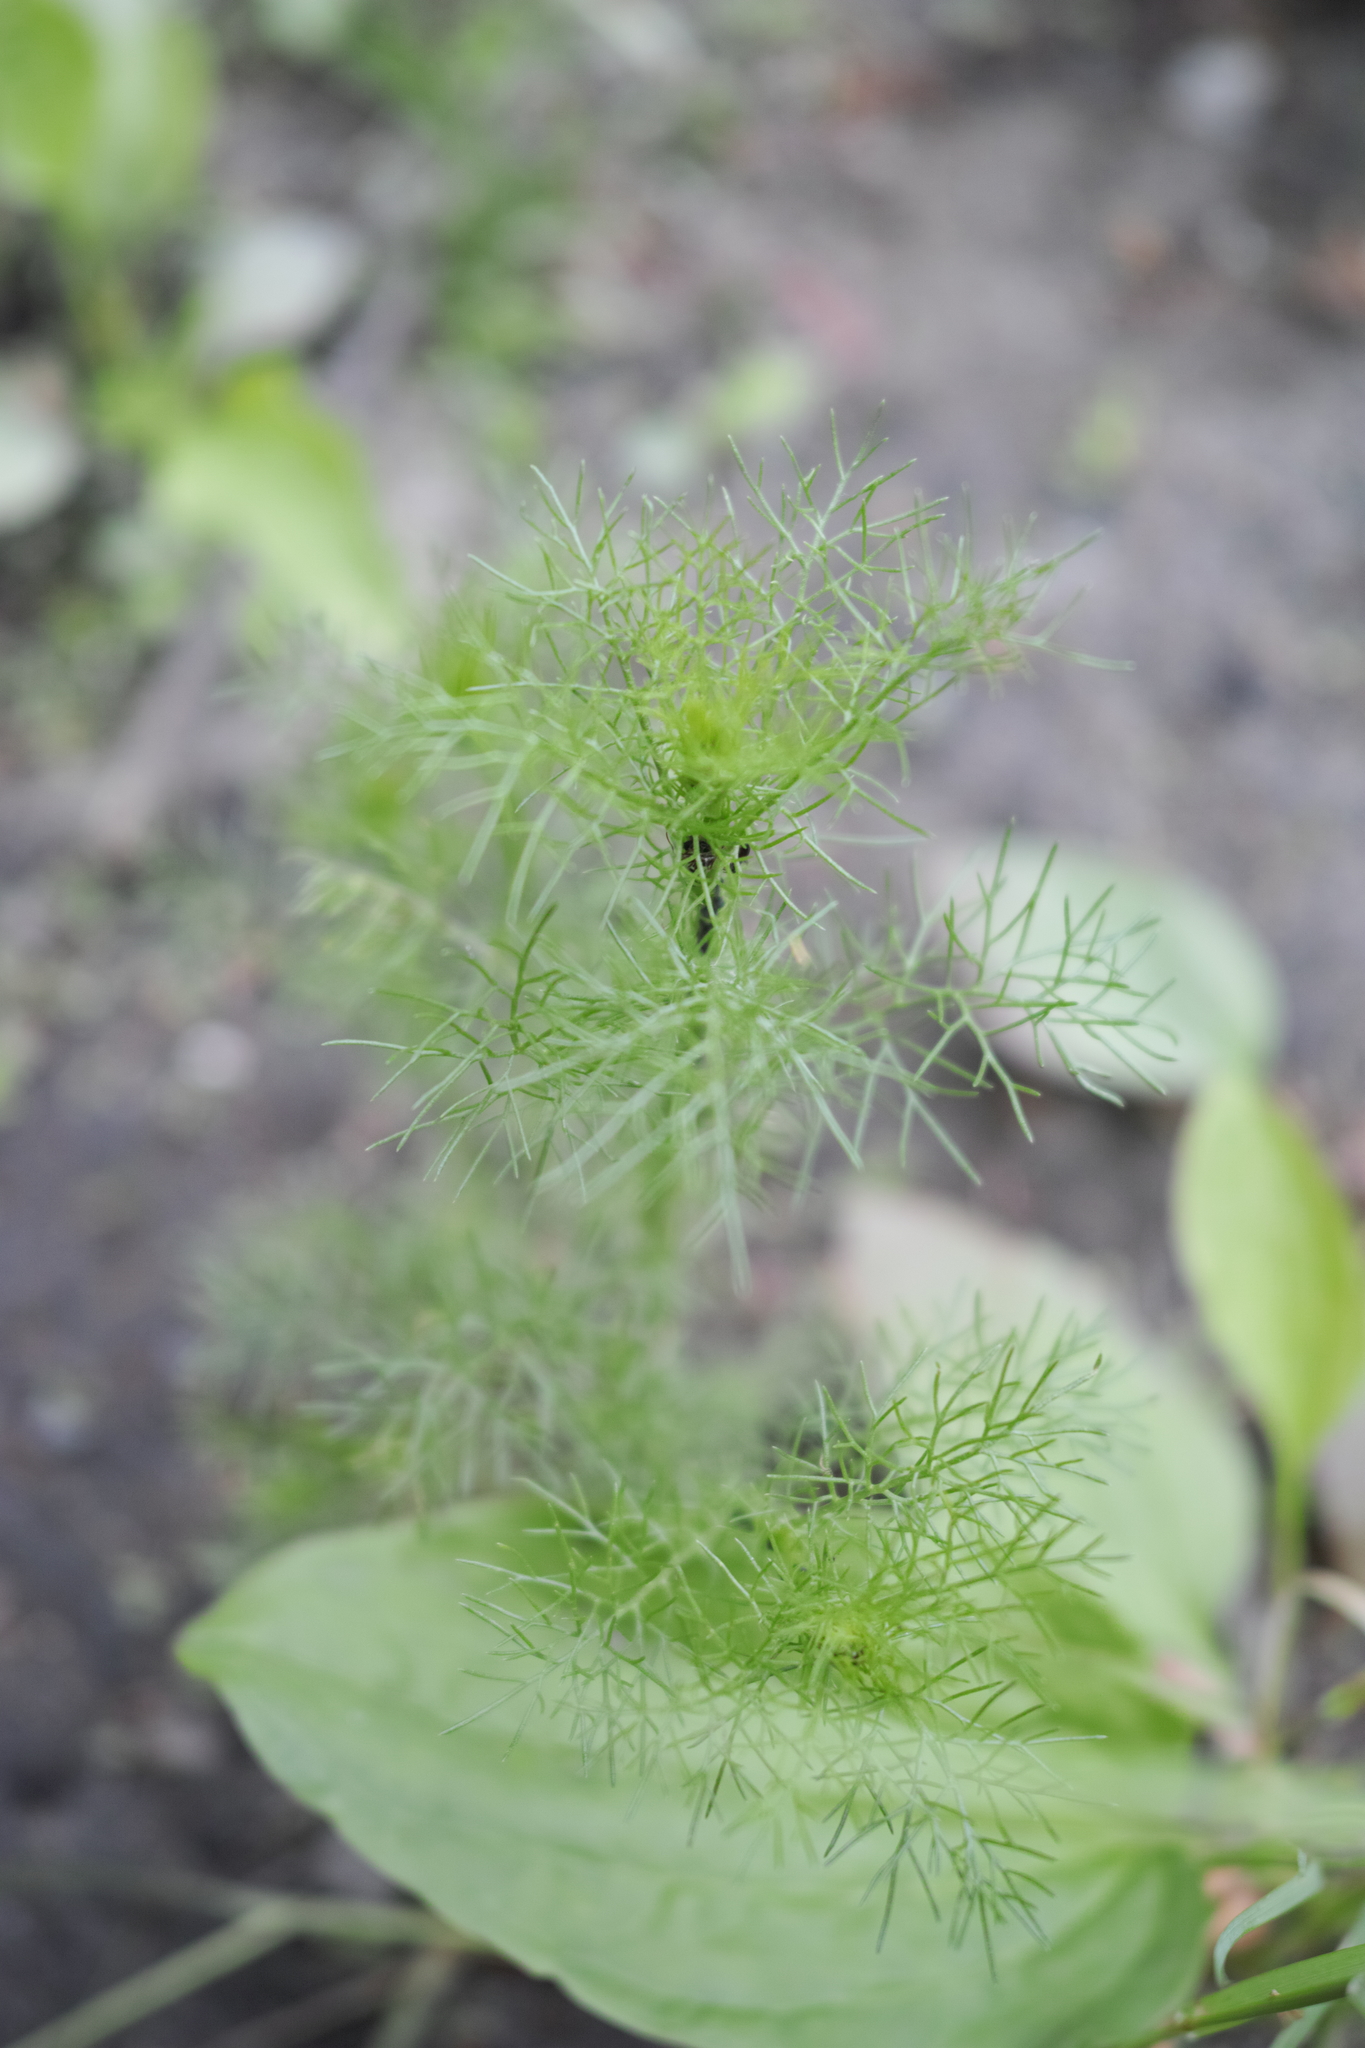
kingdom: Plantae
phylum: Tracheophyta
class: Magnoliopsida
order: Asterales
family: Asteraceae
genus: Tripleurospermum
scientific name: Tripleurospermum inodorum
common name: Scentless mayweed
